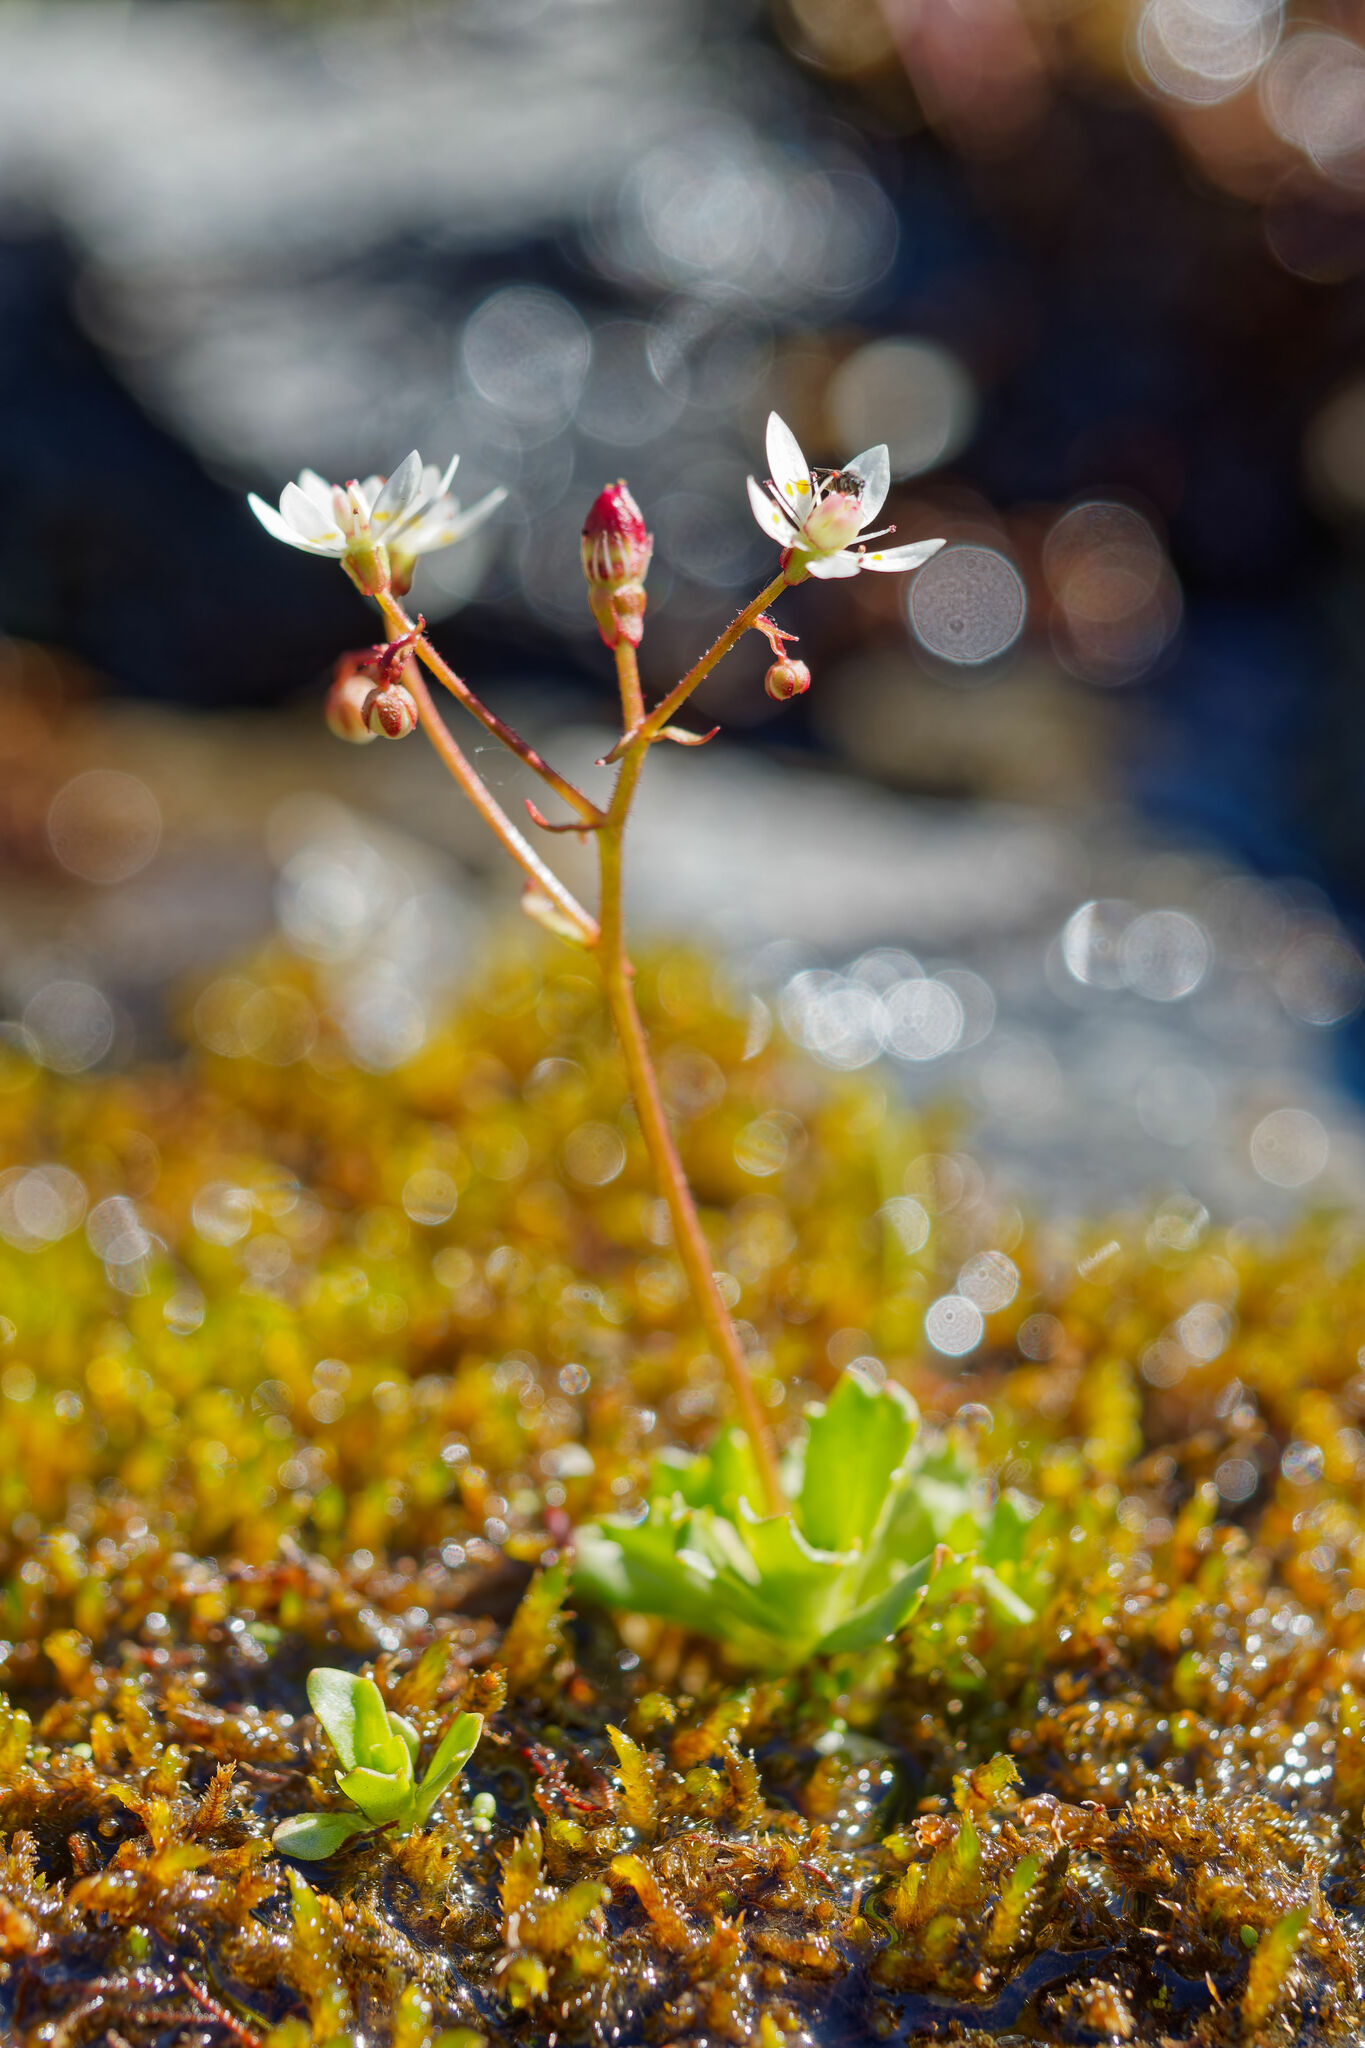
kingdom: Plantae
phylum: Tracheophyta
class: Magnoliopsida
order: Saxifragales
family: Saxifragaceae
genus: Micranthes
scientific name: Micranthes stellaris
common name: Starry saxifrage
